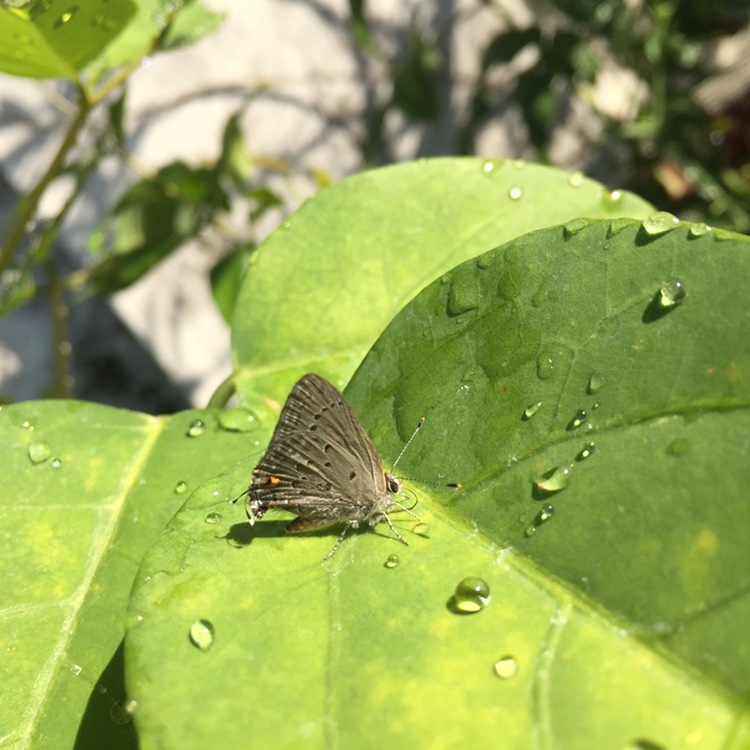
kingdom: Animalia
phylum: Arthropoda
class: Insecta
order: Lepidoptera
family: Lycaenidae
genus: Strymon
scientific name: Strymon eurytulus
